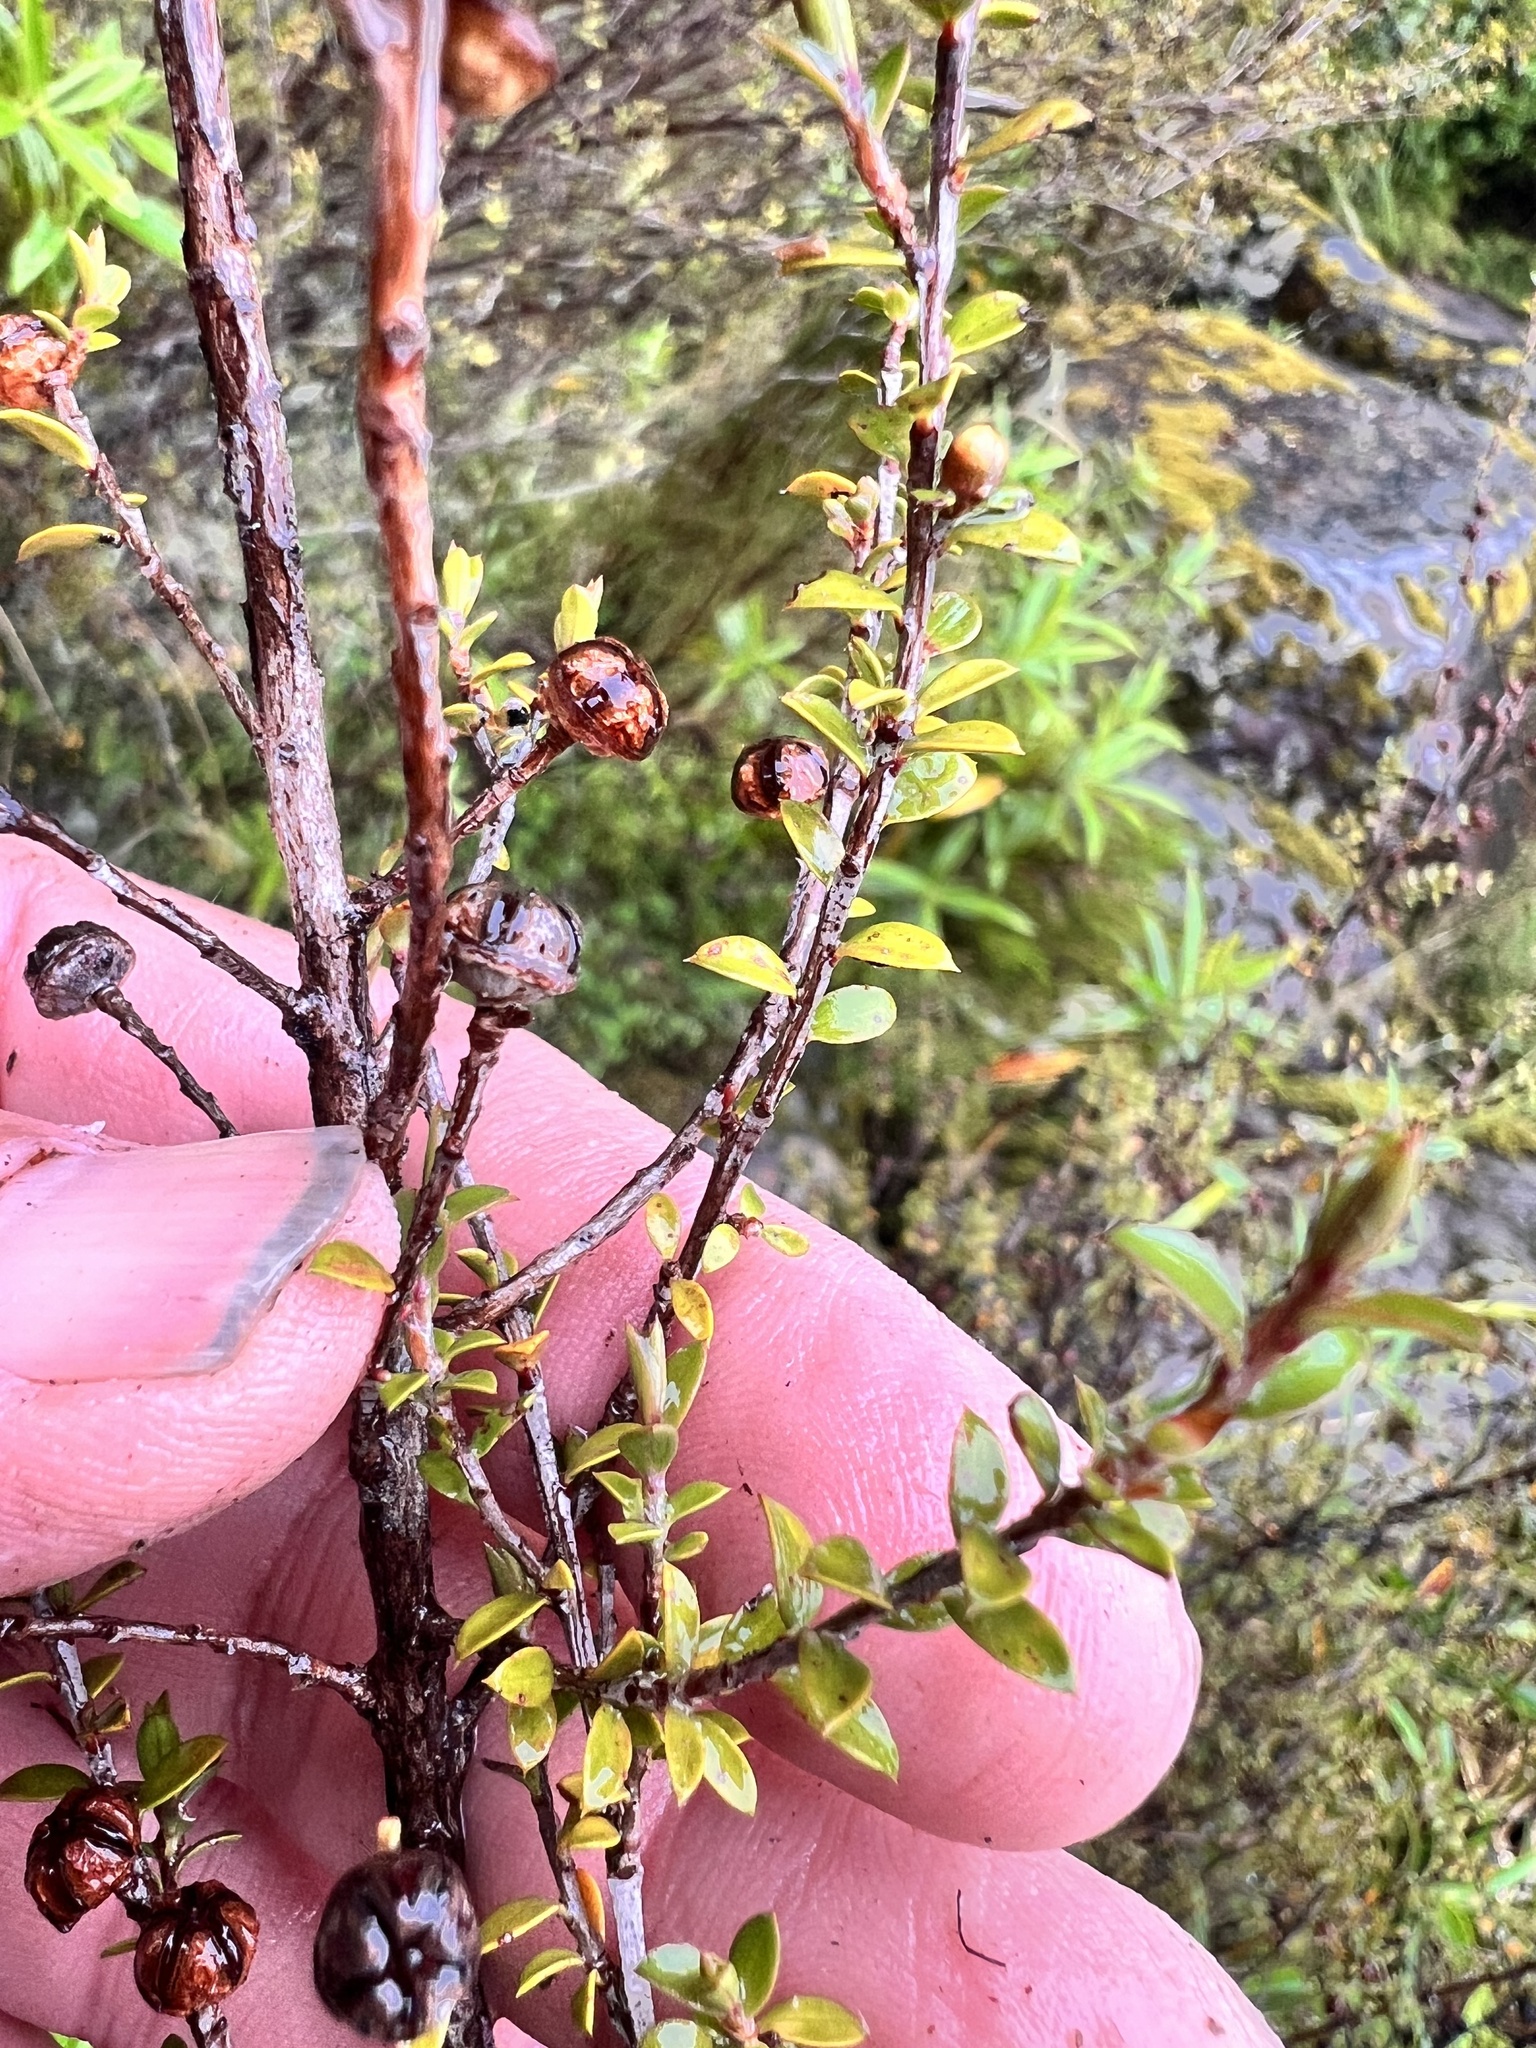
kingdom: Plantae
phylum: Tracheophyta
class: Magnoliopsida
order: Myrtales
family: Myrtaceae
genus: Leptospermum
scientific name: Leptospermum scoparium
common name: Broom tea-tree
